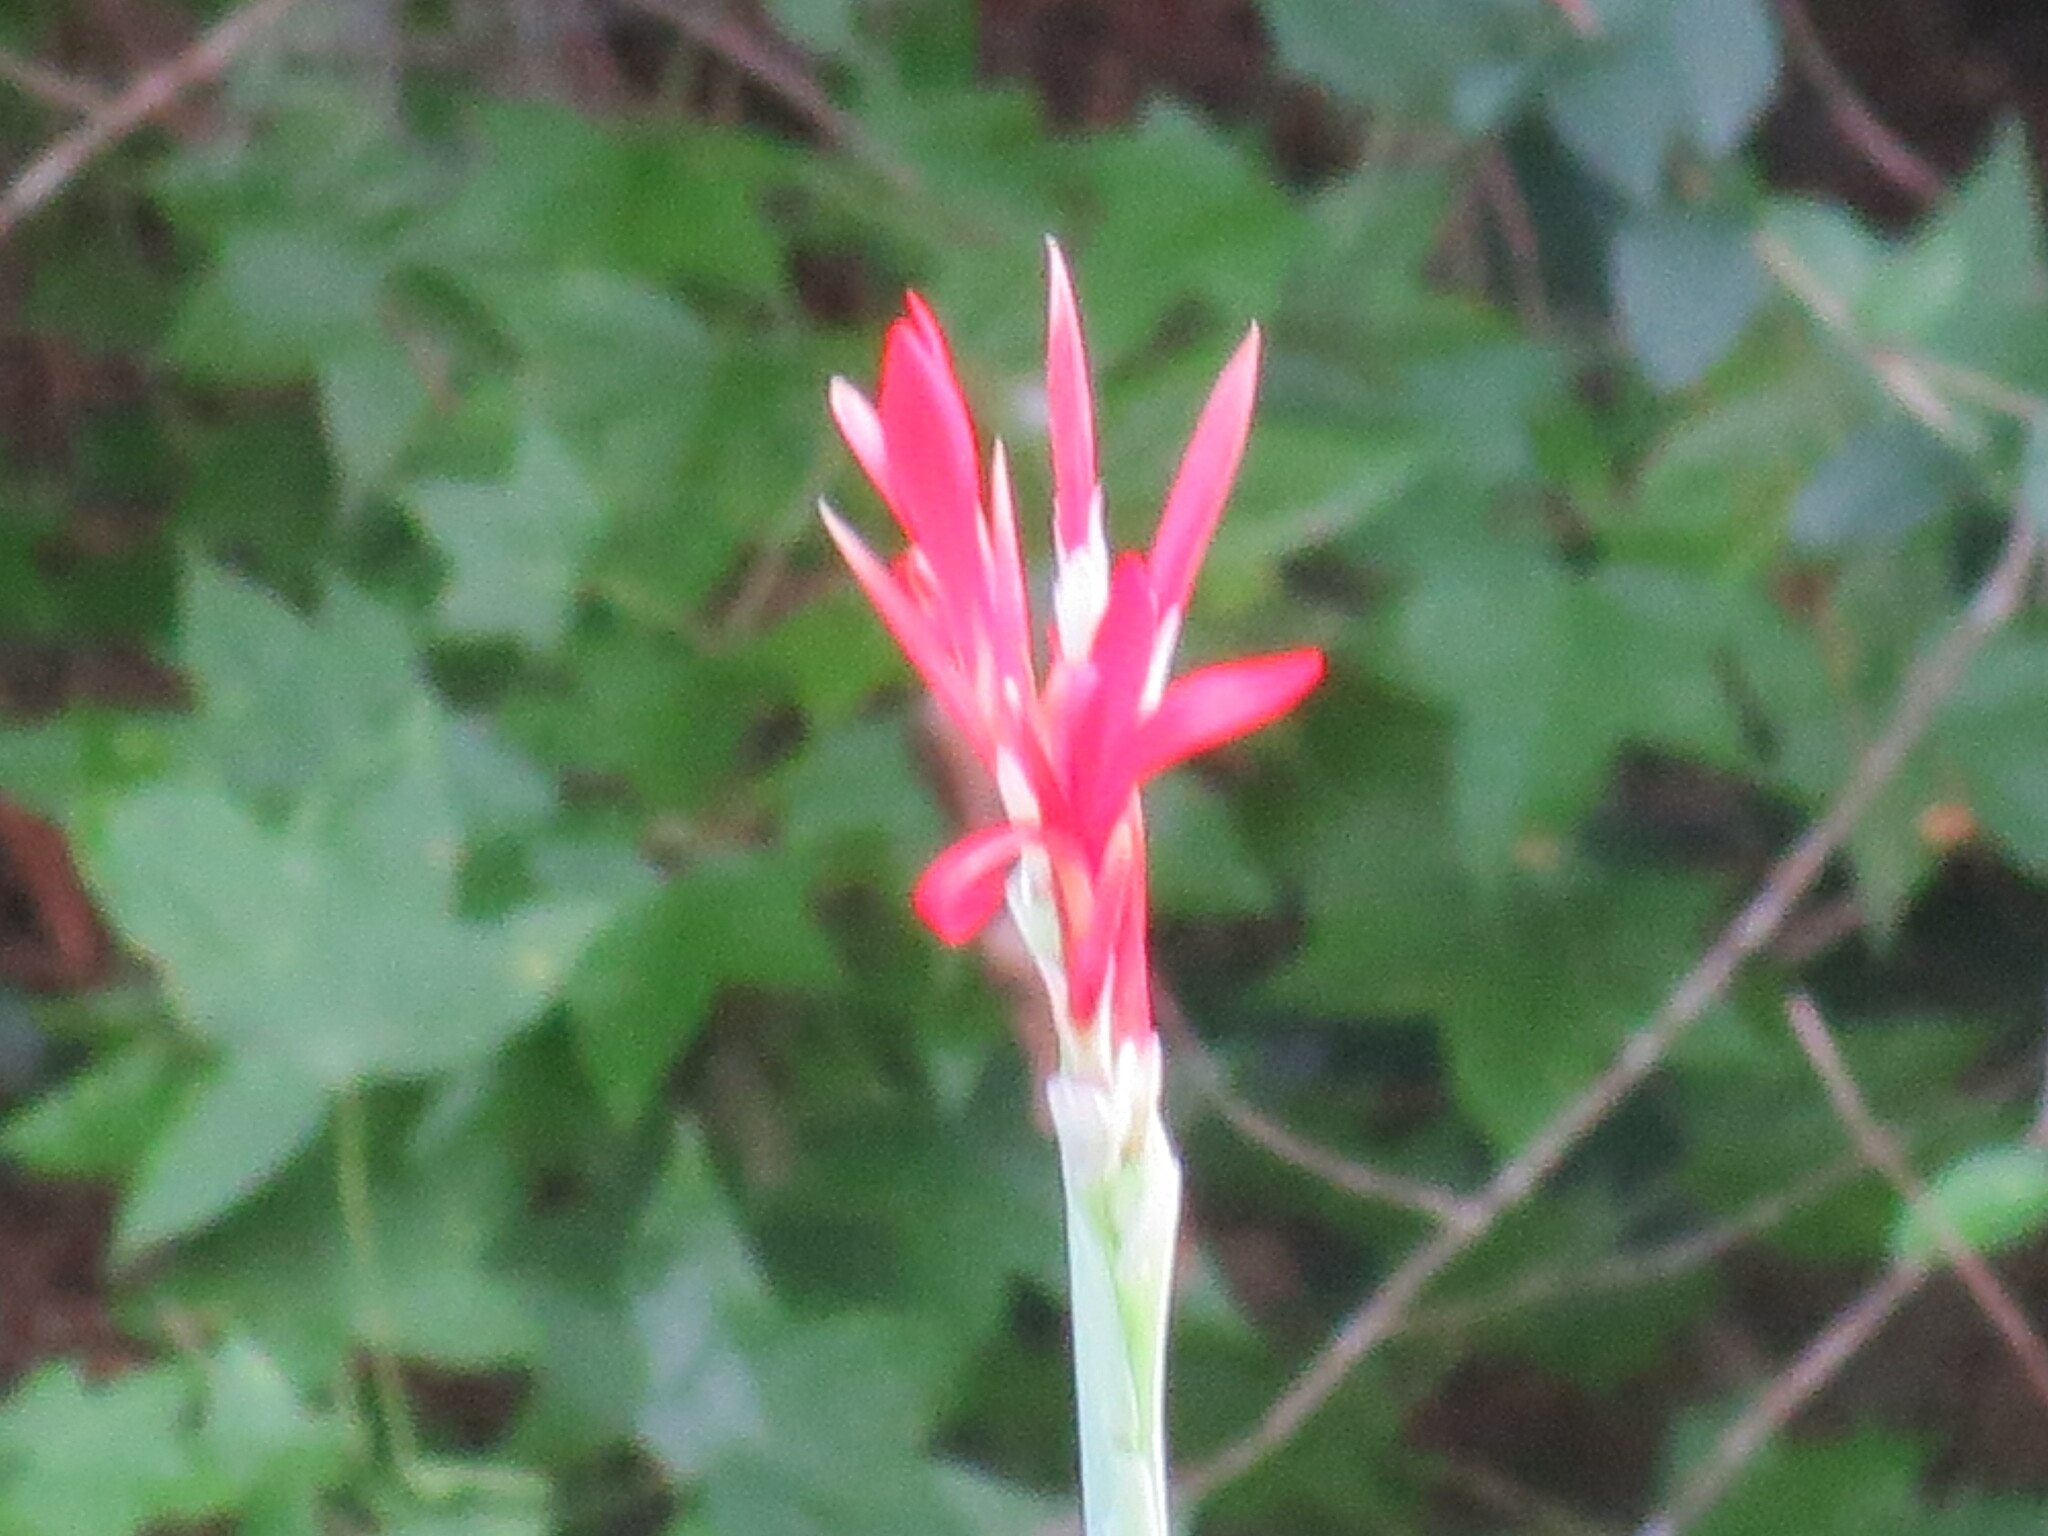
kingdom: Plantae
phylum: Tracheophyta
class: Liliopsida
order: Zingiberales
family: Cannaceae
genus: Canna
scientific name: Canna indica
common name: Indian shot
